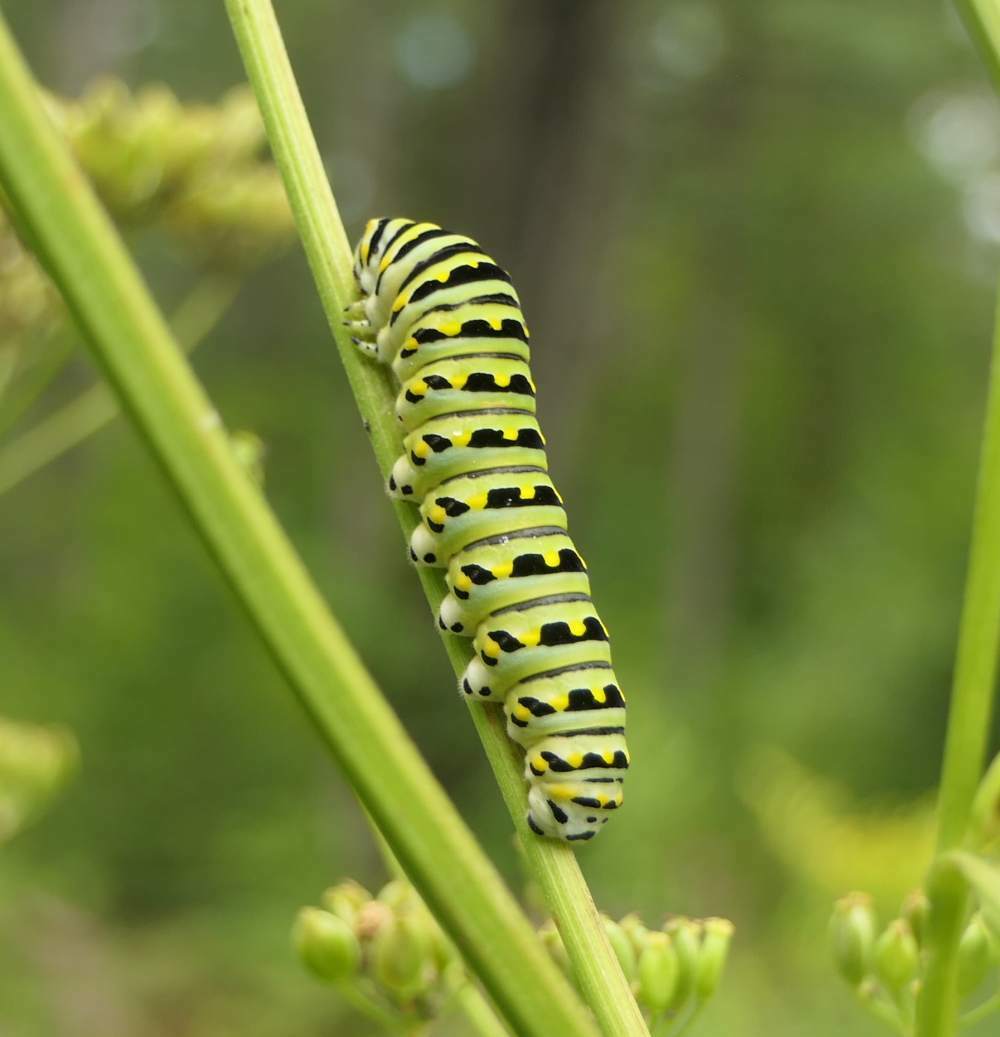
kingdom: Animalia
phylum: Arthropoda
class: Insecta
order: Lepidoptera
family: Papilionidae
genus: Papilio
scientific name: Papilio polyxenes
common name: Black swallowtail
